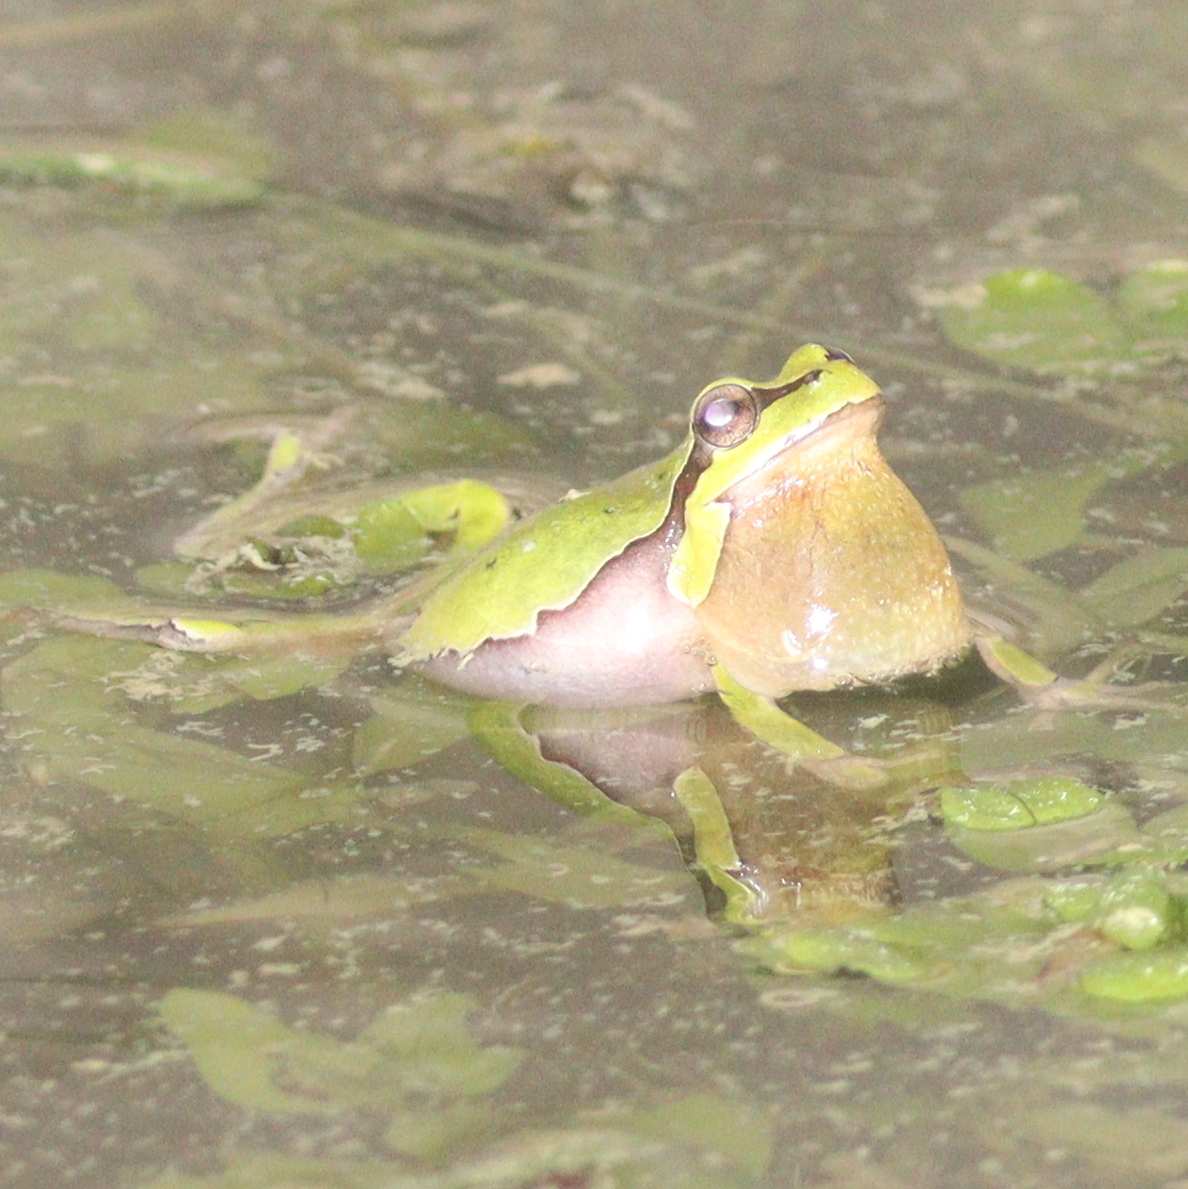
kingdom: Animalia
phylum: Chordata
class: Amphibia
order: Anura
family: Hylidae
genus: Hyla
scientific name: Hyla orientalis
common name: Caucasian treefrog
